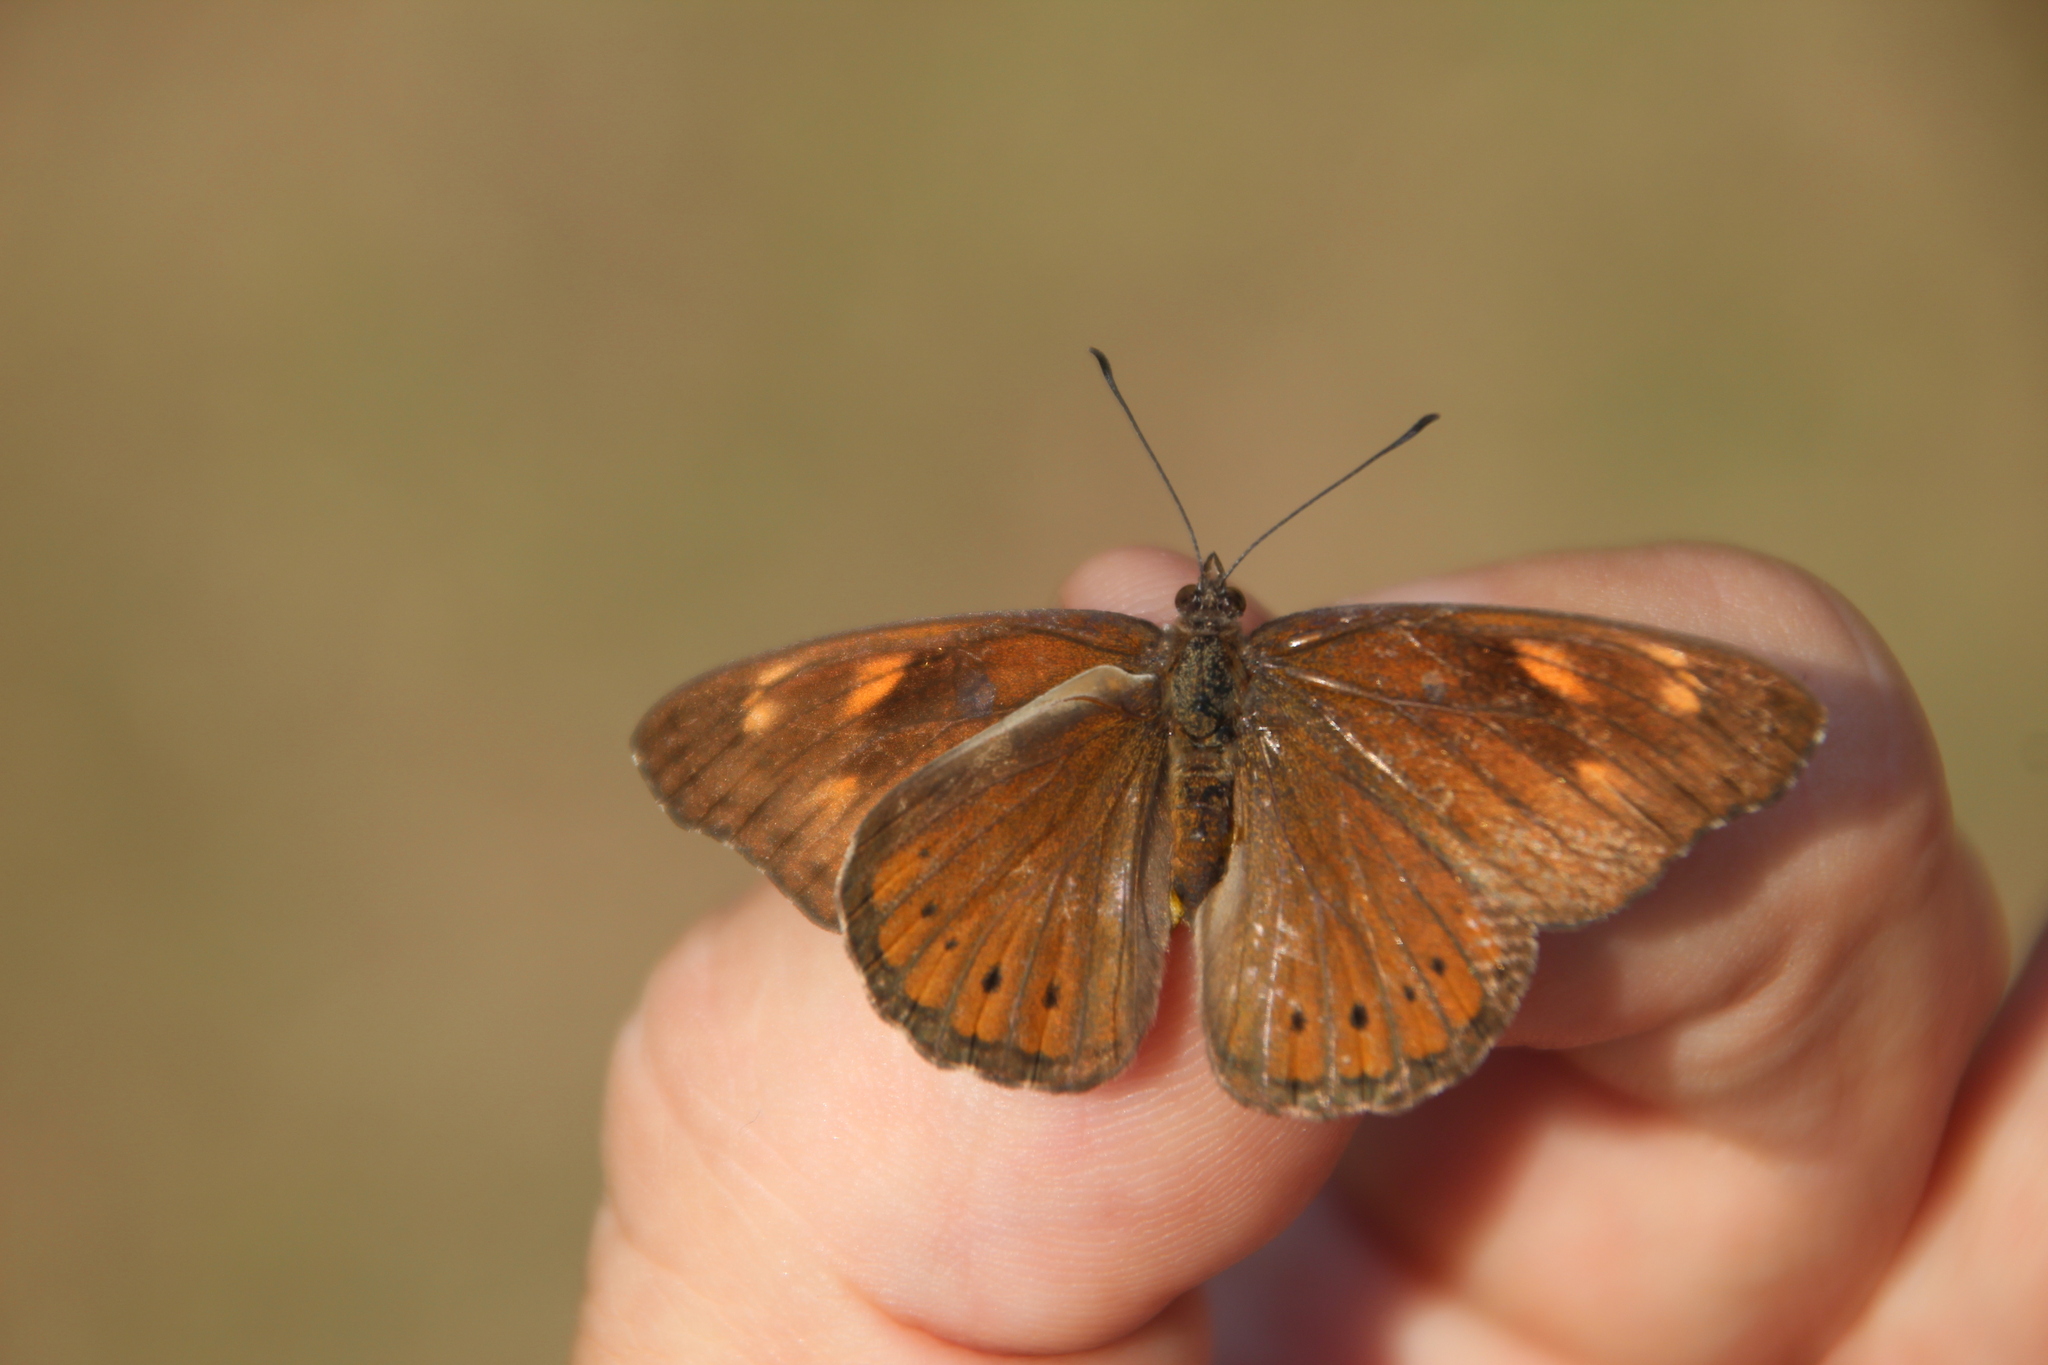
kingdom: Animalia
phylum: Arthropoda
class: Insecta
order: Lepidoptera
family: Nymphalidae
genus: Asterope
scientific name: Asterope boisduvali
